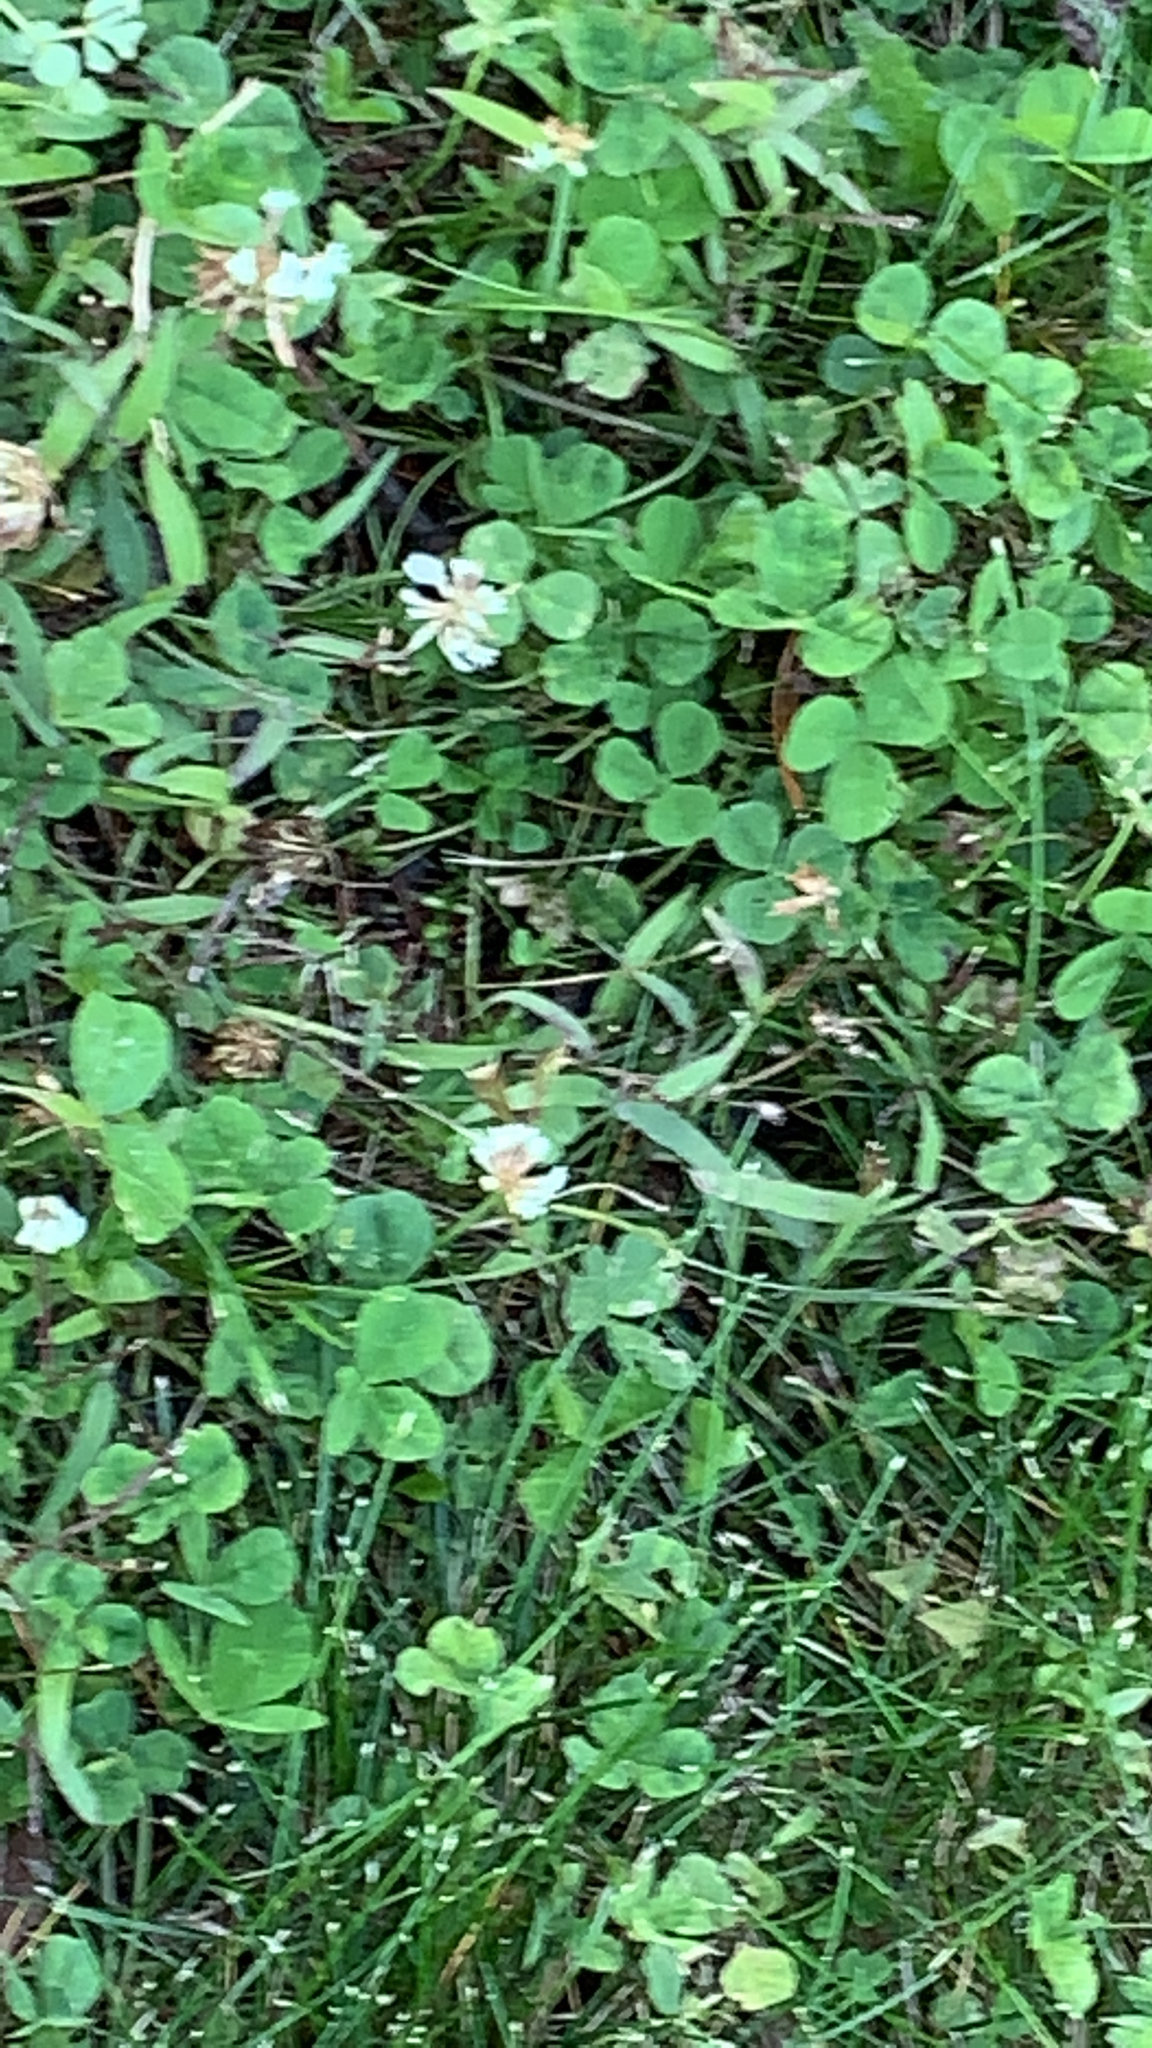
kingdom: Plantae
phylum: Tracheophyta
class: Magnoliopsida
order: Fabales
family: Fabaceae
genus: Trifolium
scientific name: Trifolium repens
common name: White clover
